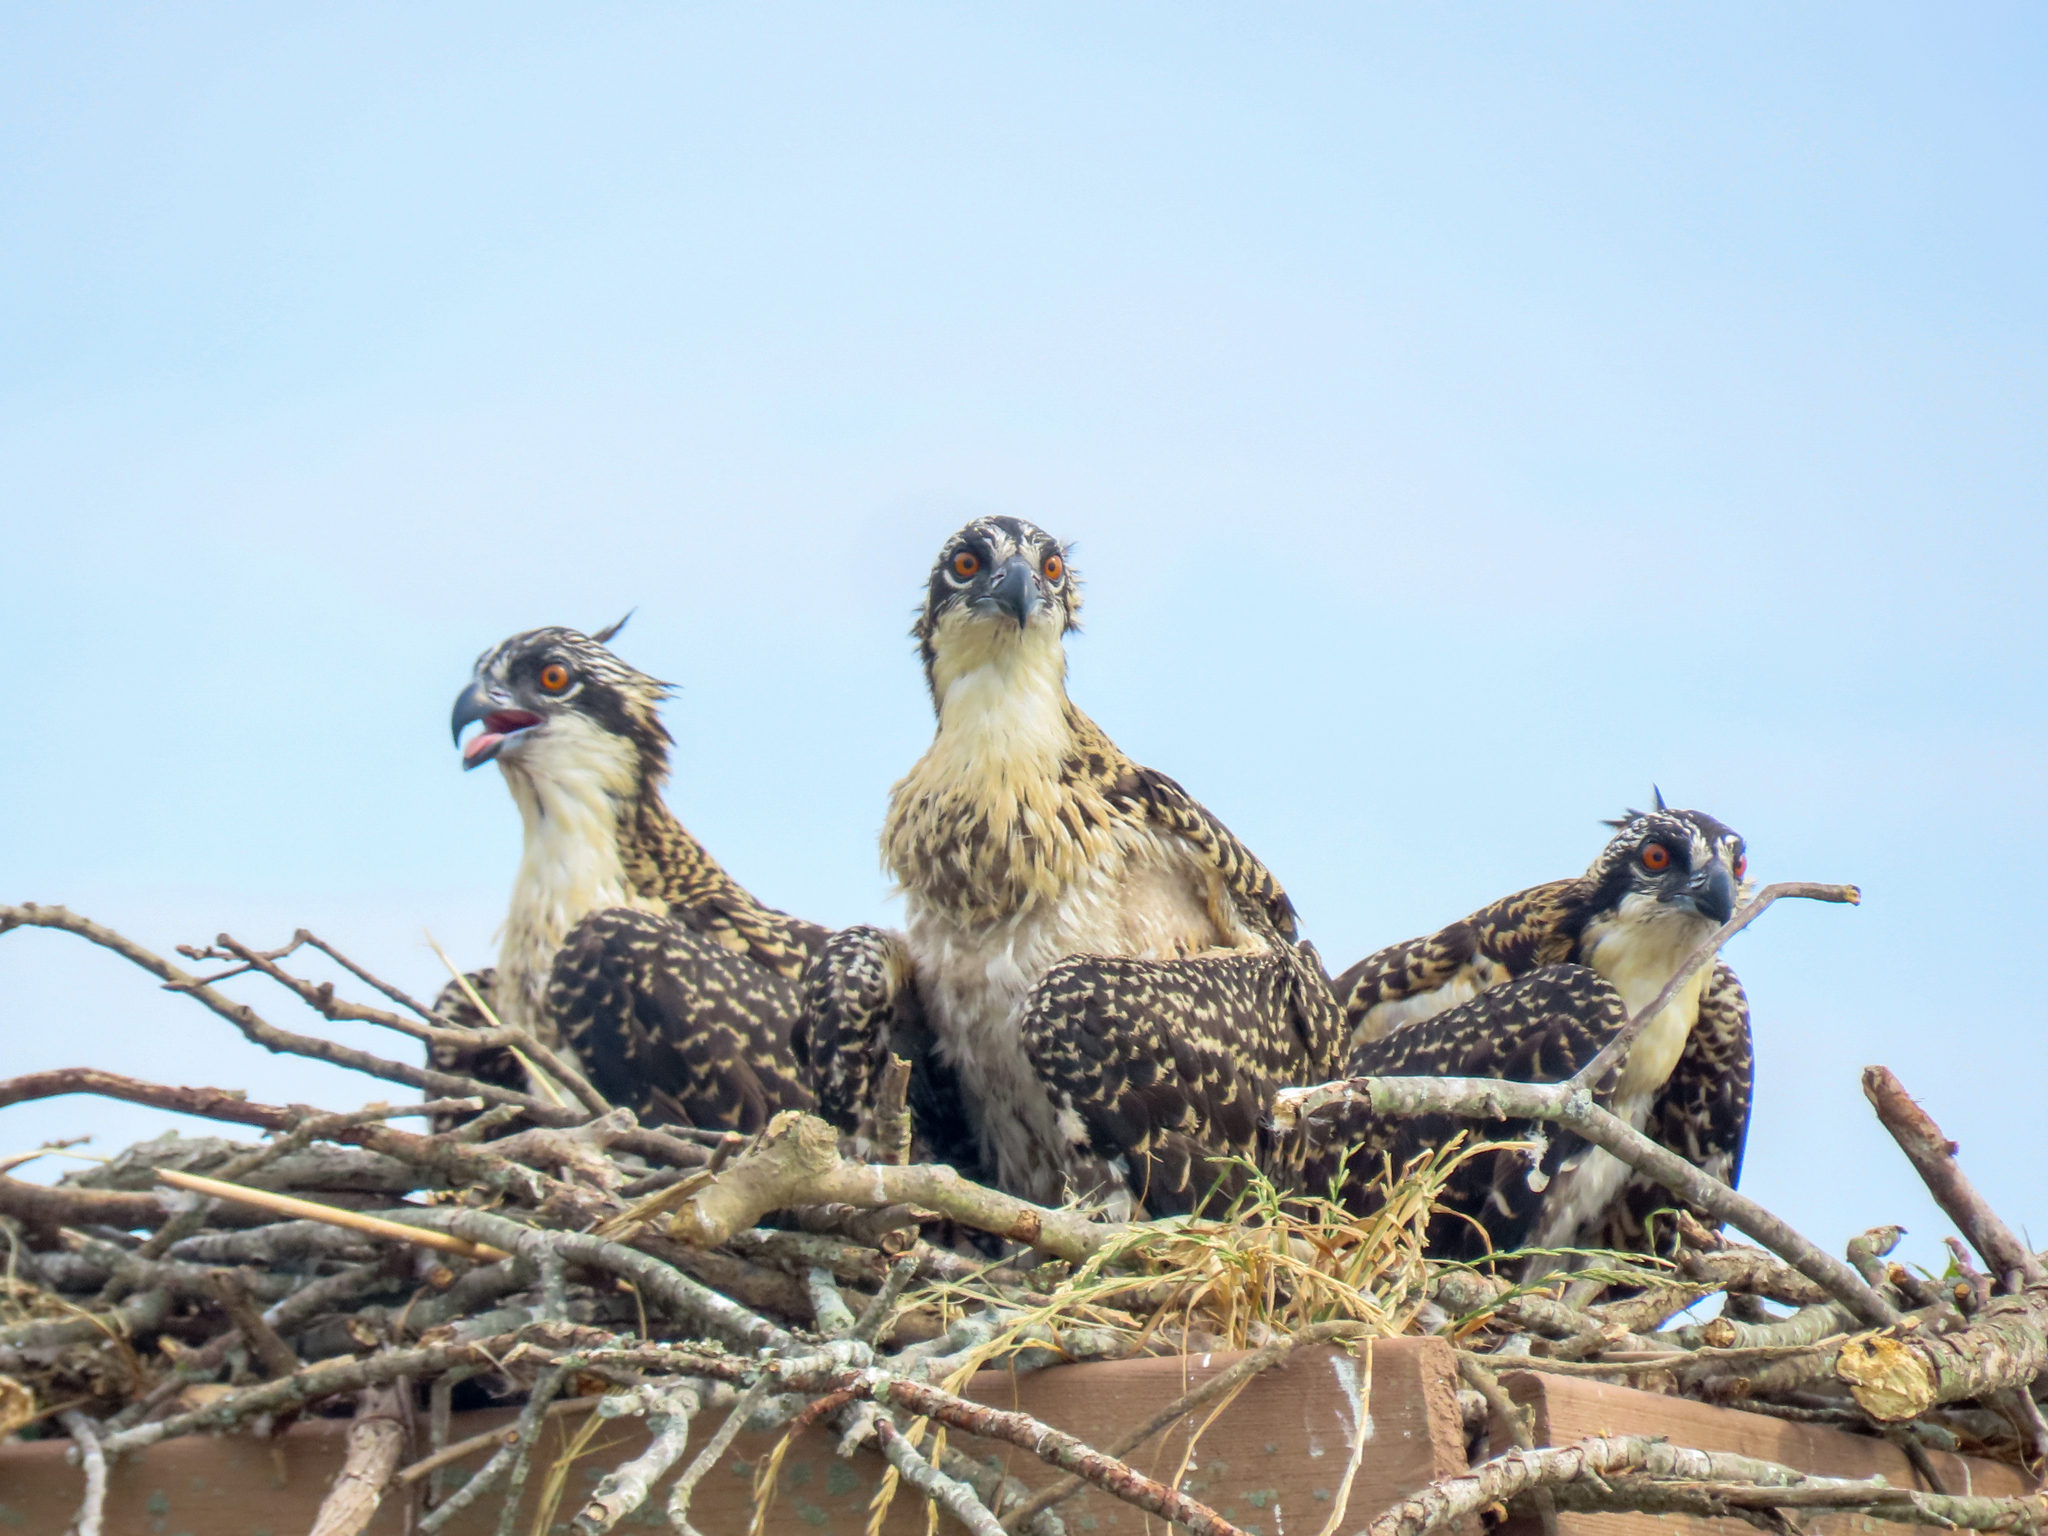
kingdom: Animalia
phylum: Chordata
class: Aves
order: Accipitriformes
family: Pandionidae
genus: Pandion
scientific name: Pandion haliaetus
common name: Osprey
